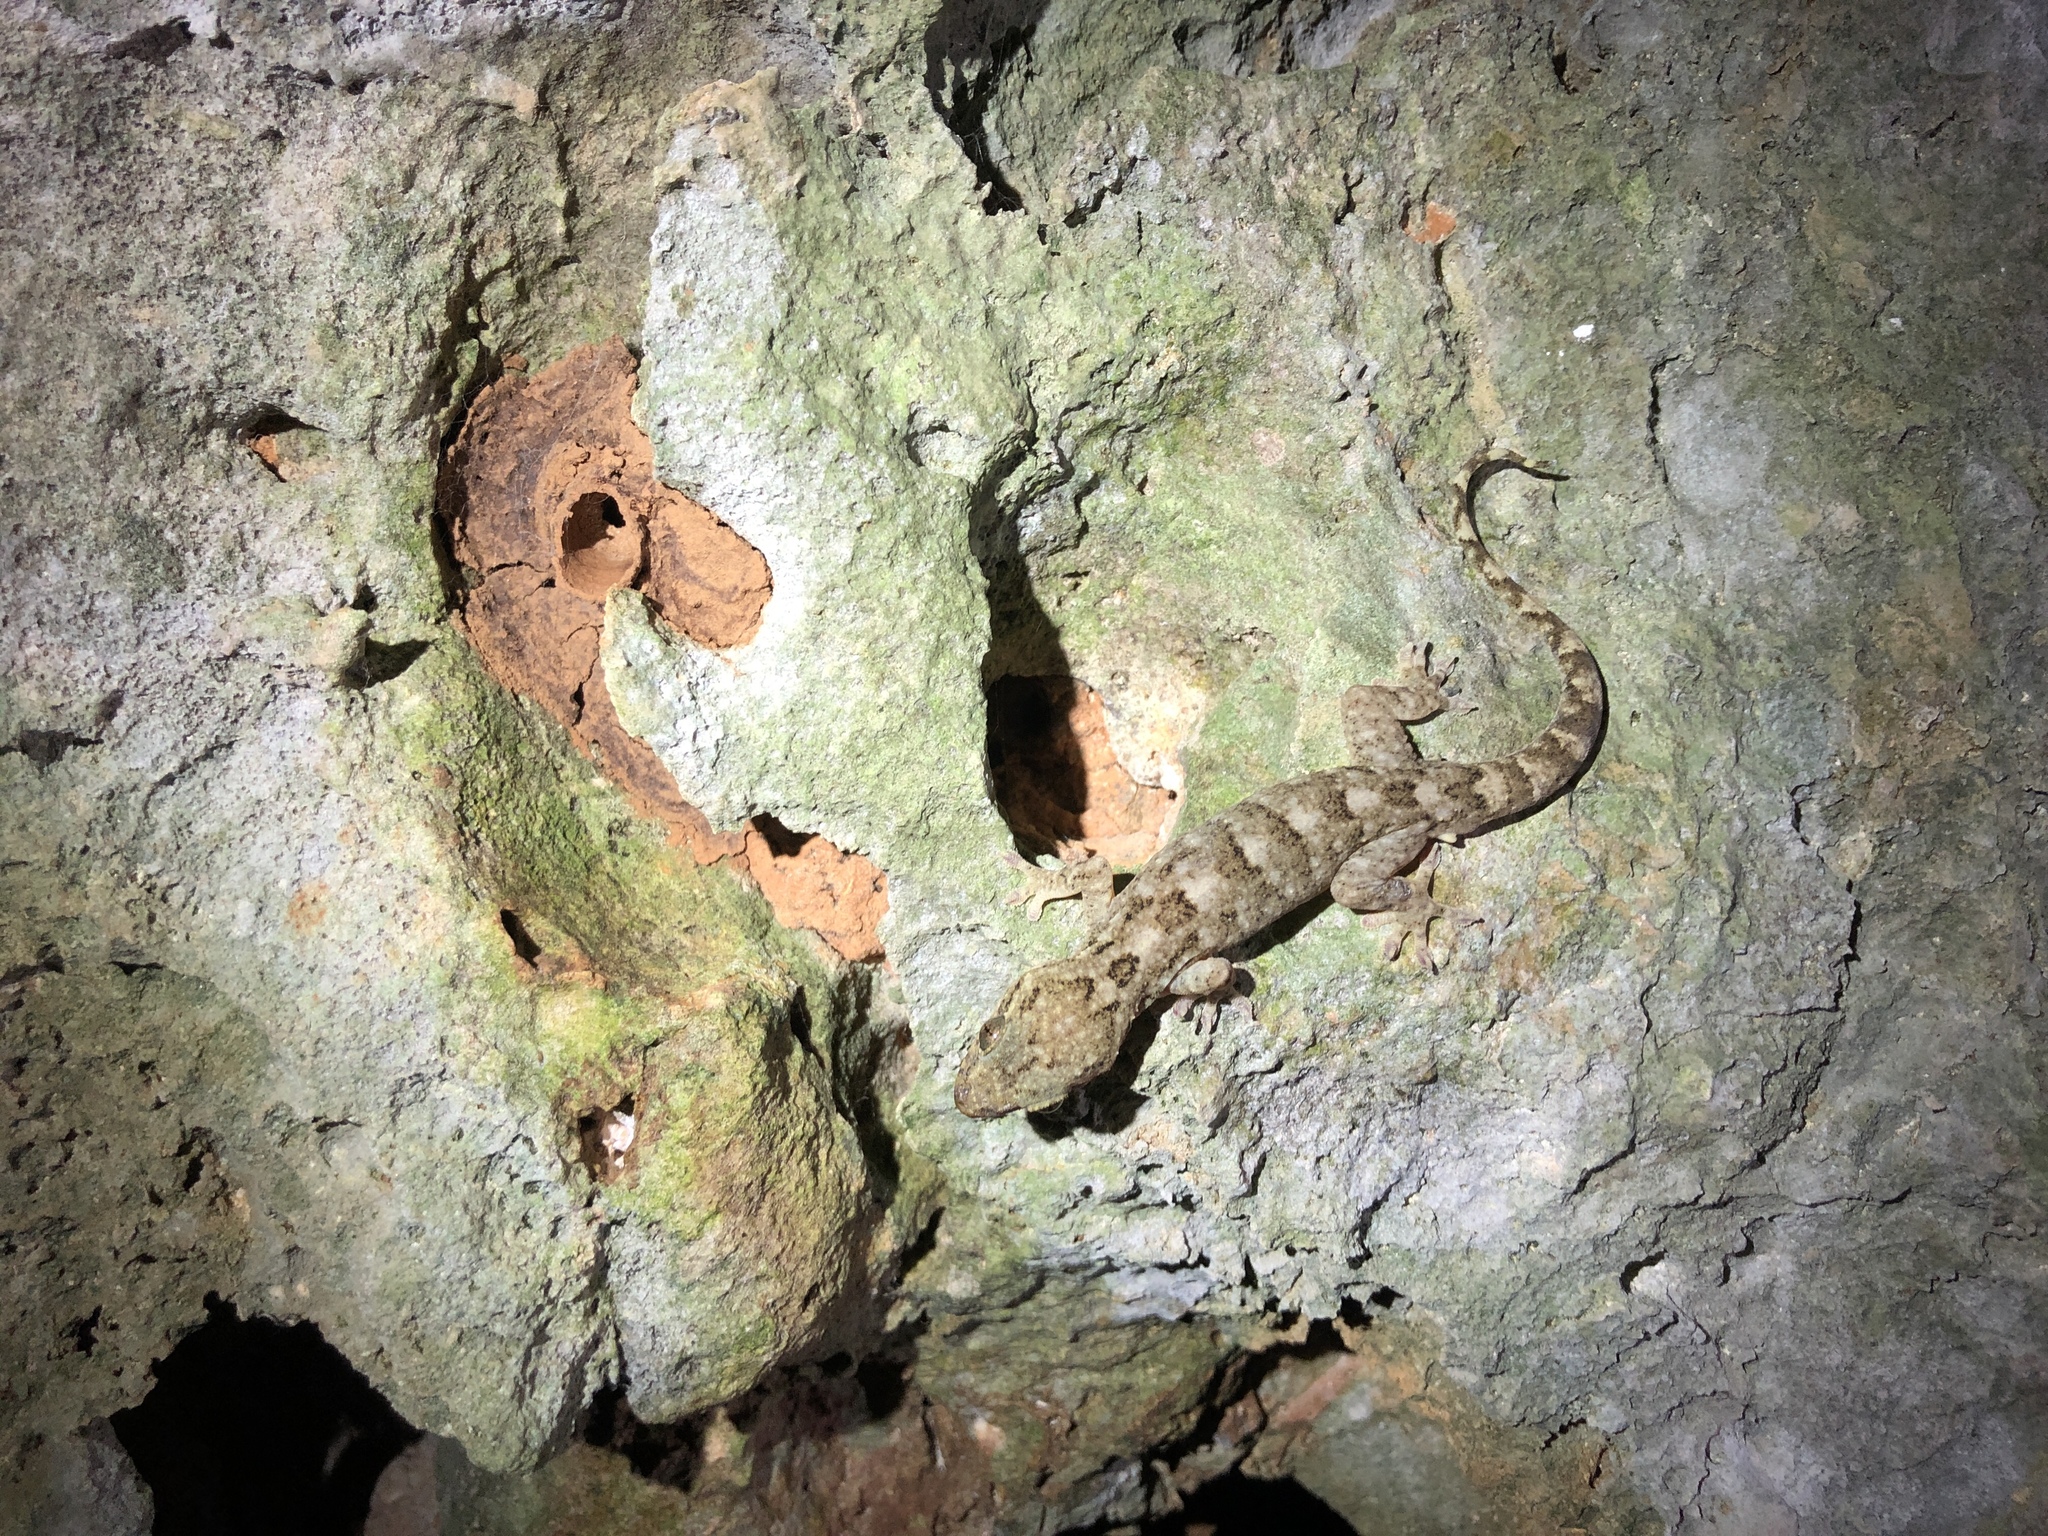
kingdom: Animalia
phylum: Chordata
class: Squamata
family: Gekkonidae
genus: Gekko
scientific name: Gekko hokouensis
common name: Kwangsi gecko
